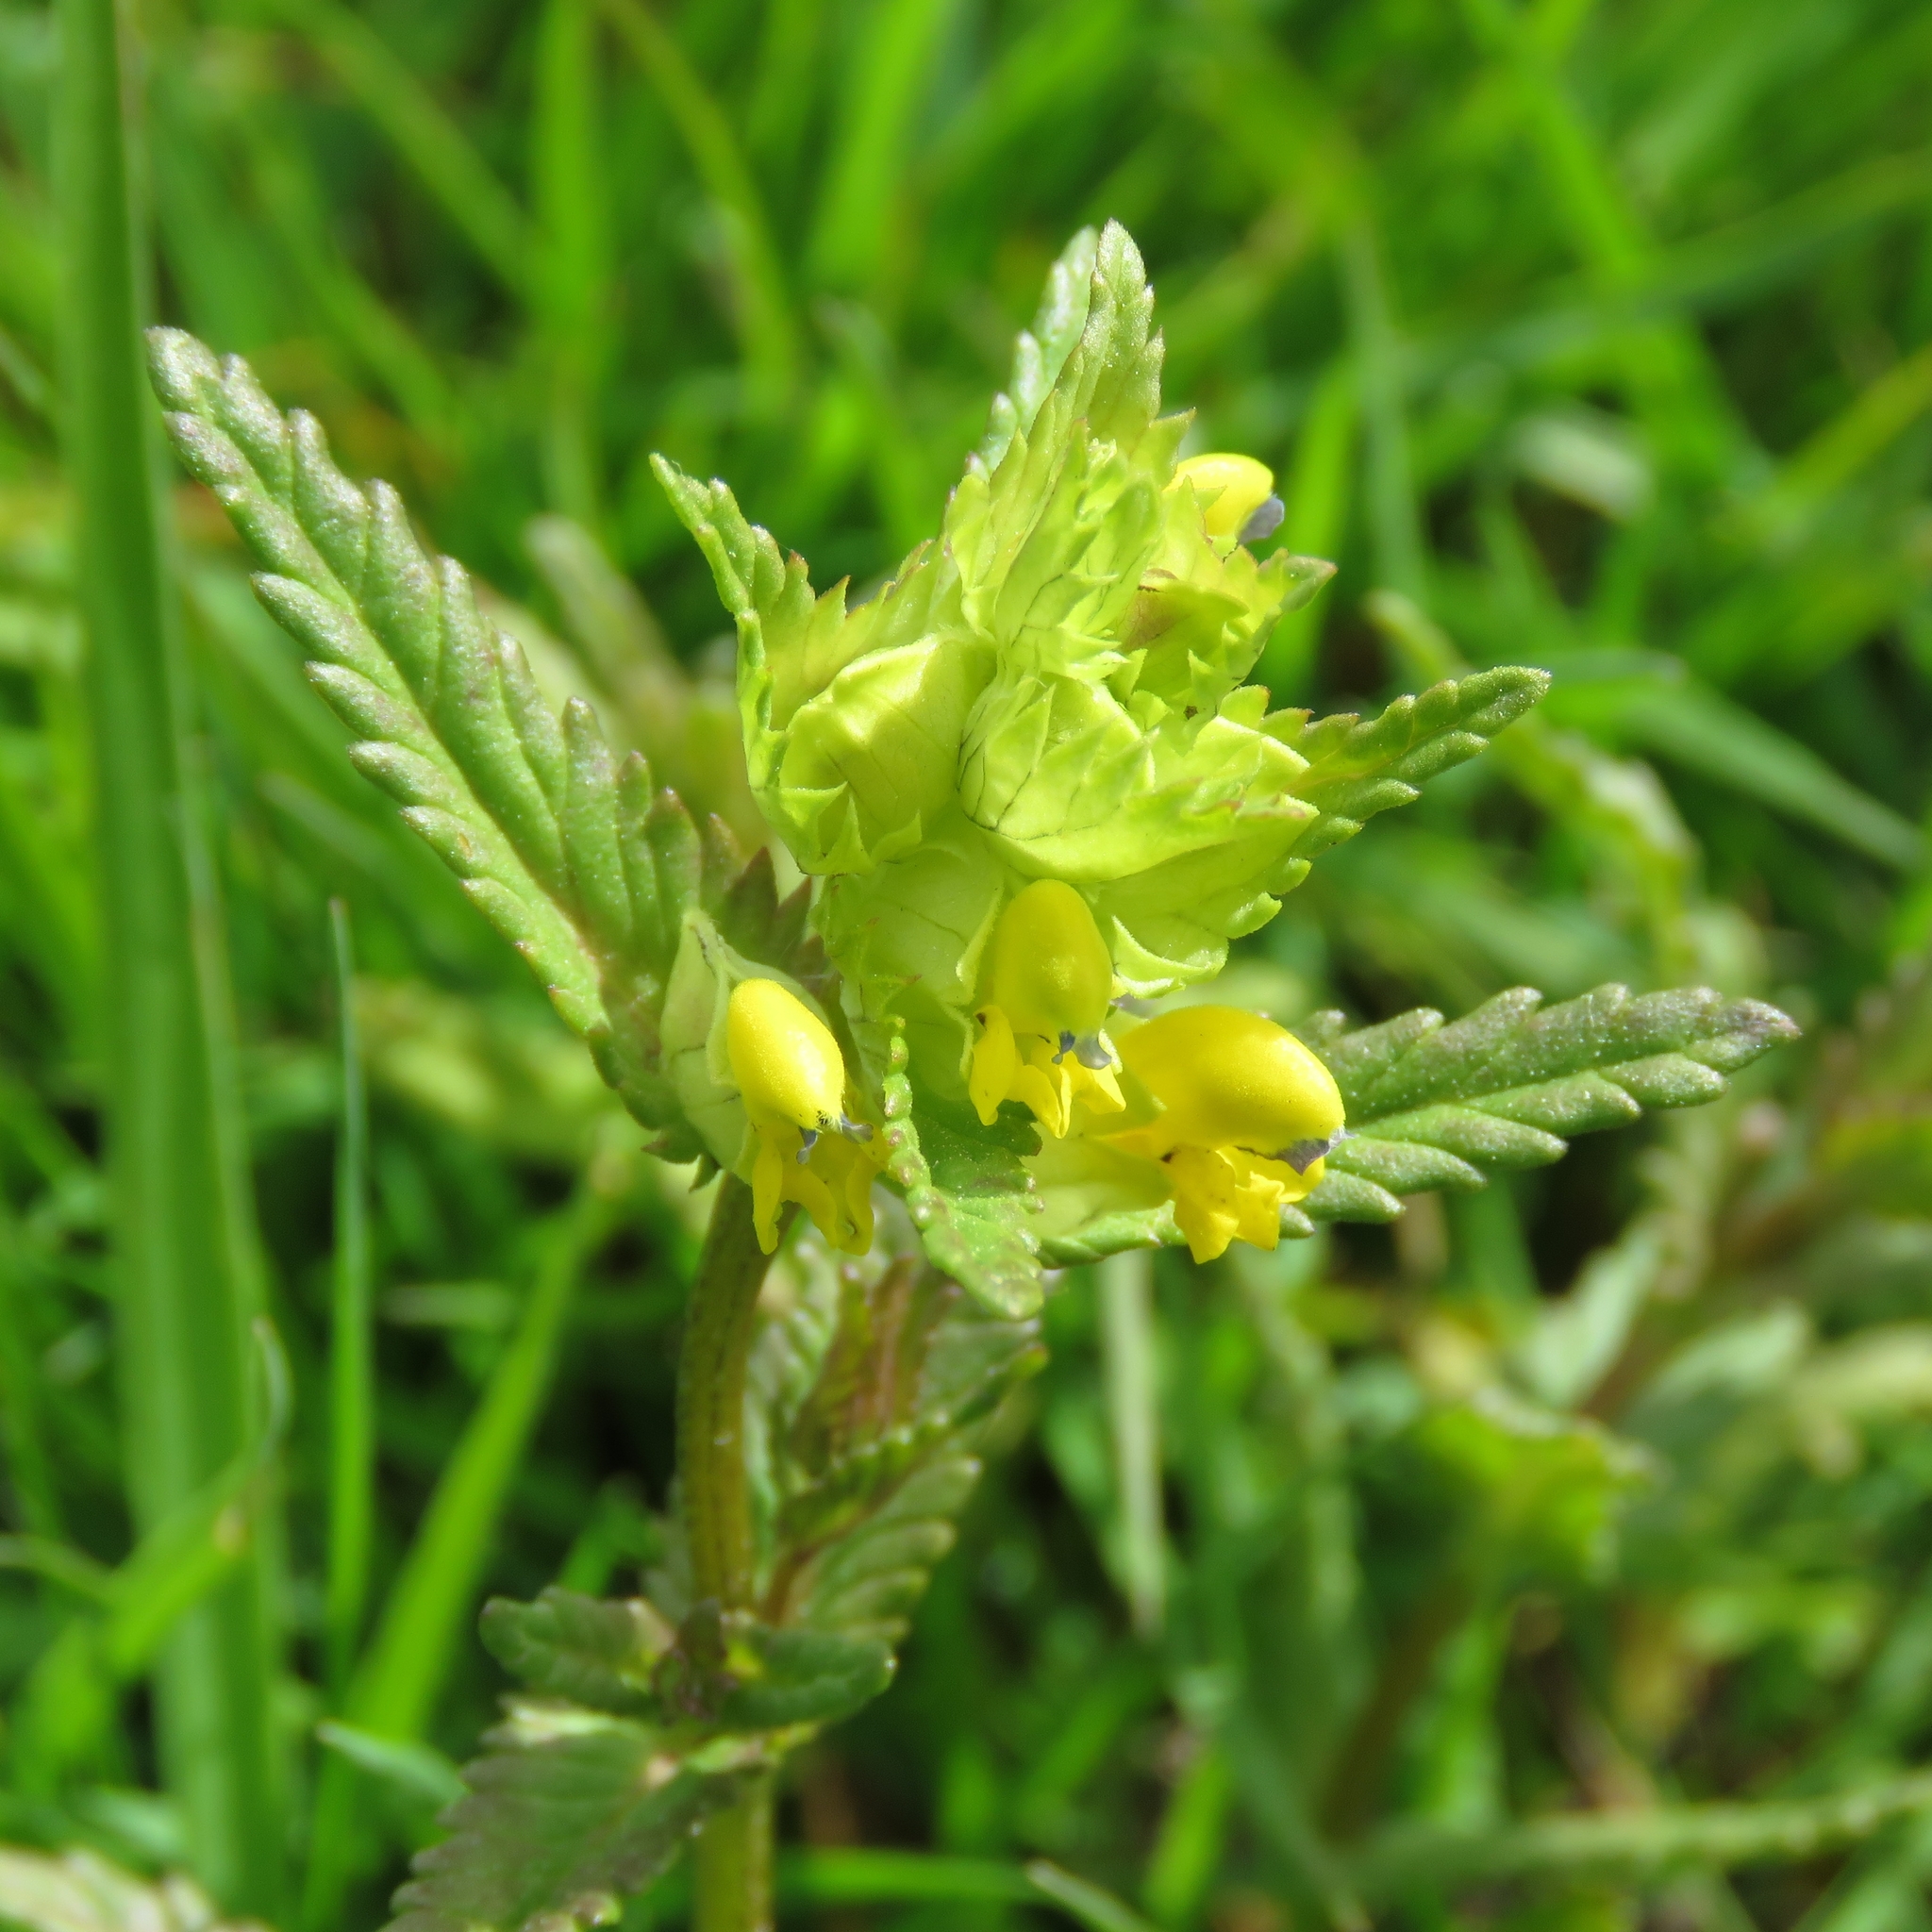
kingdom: Plantae
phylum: Tracheophyta
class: Magnoliopsida
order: Lamiales
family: Orobanchaceae
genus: Rhinanthus
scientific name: Rhinanthus minor
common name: Yellow-rattle
